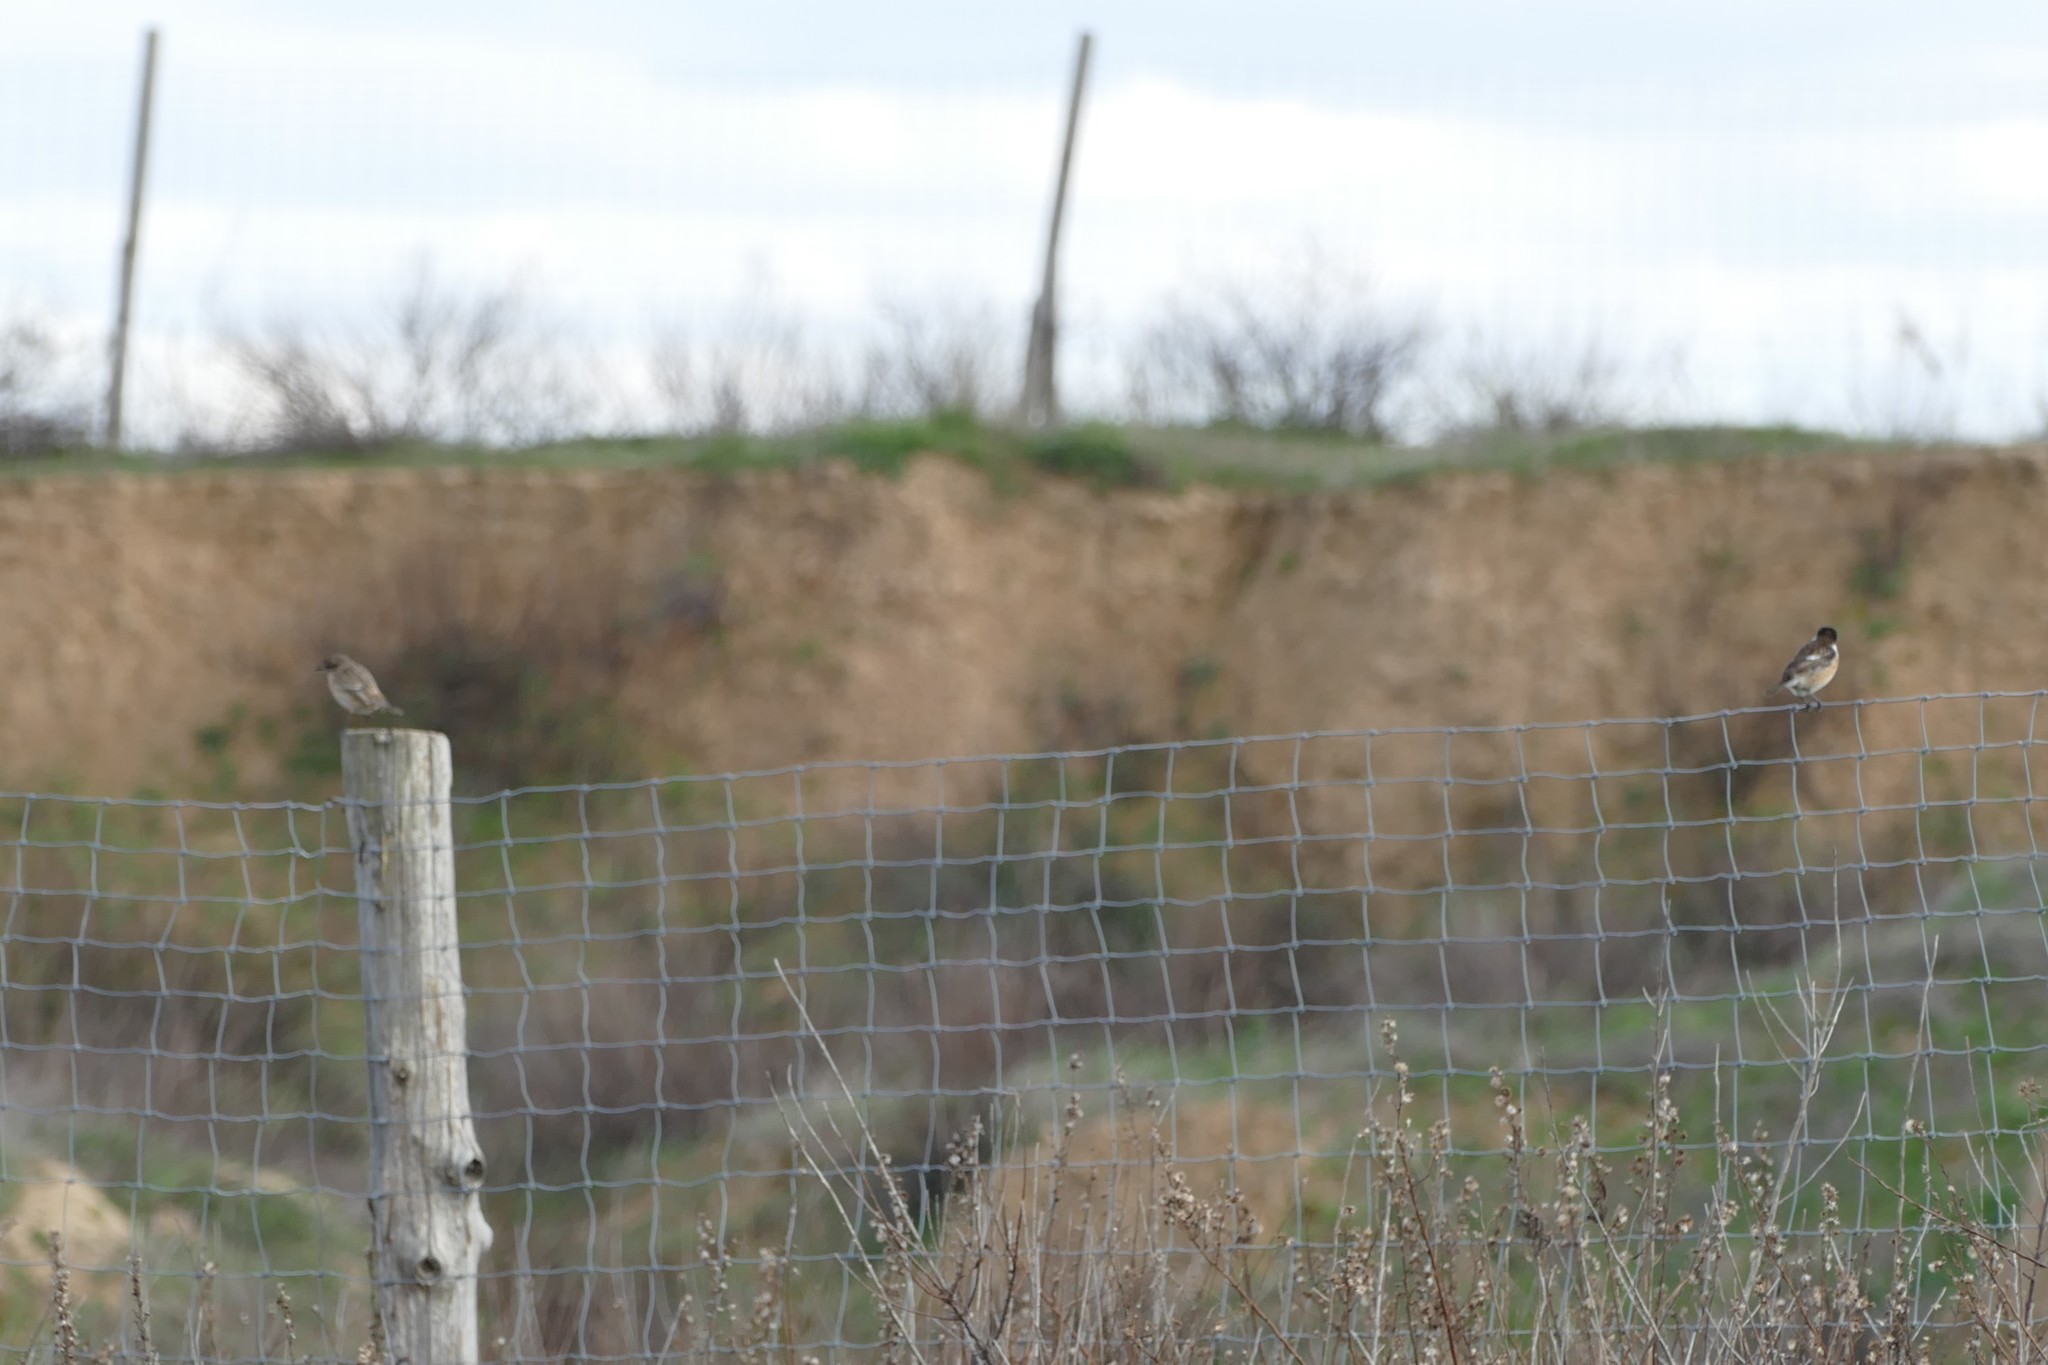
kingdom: Animalia
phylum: Chordata
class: Aves
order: Passeriformes
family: Muscicapidae
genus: Saxicola
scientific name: Saxicola rubicola
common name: European stonechat
